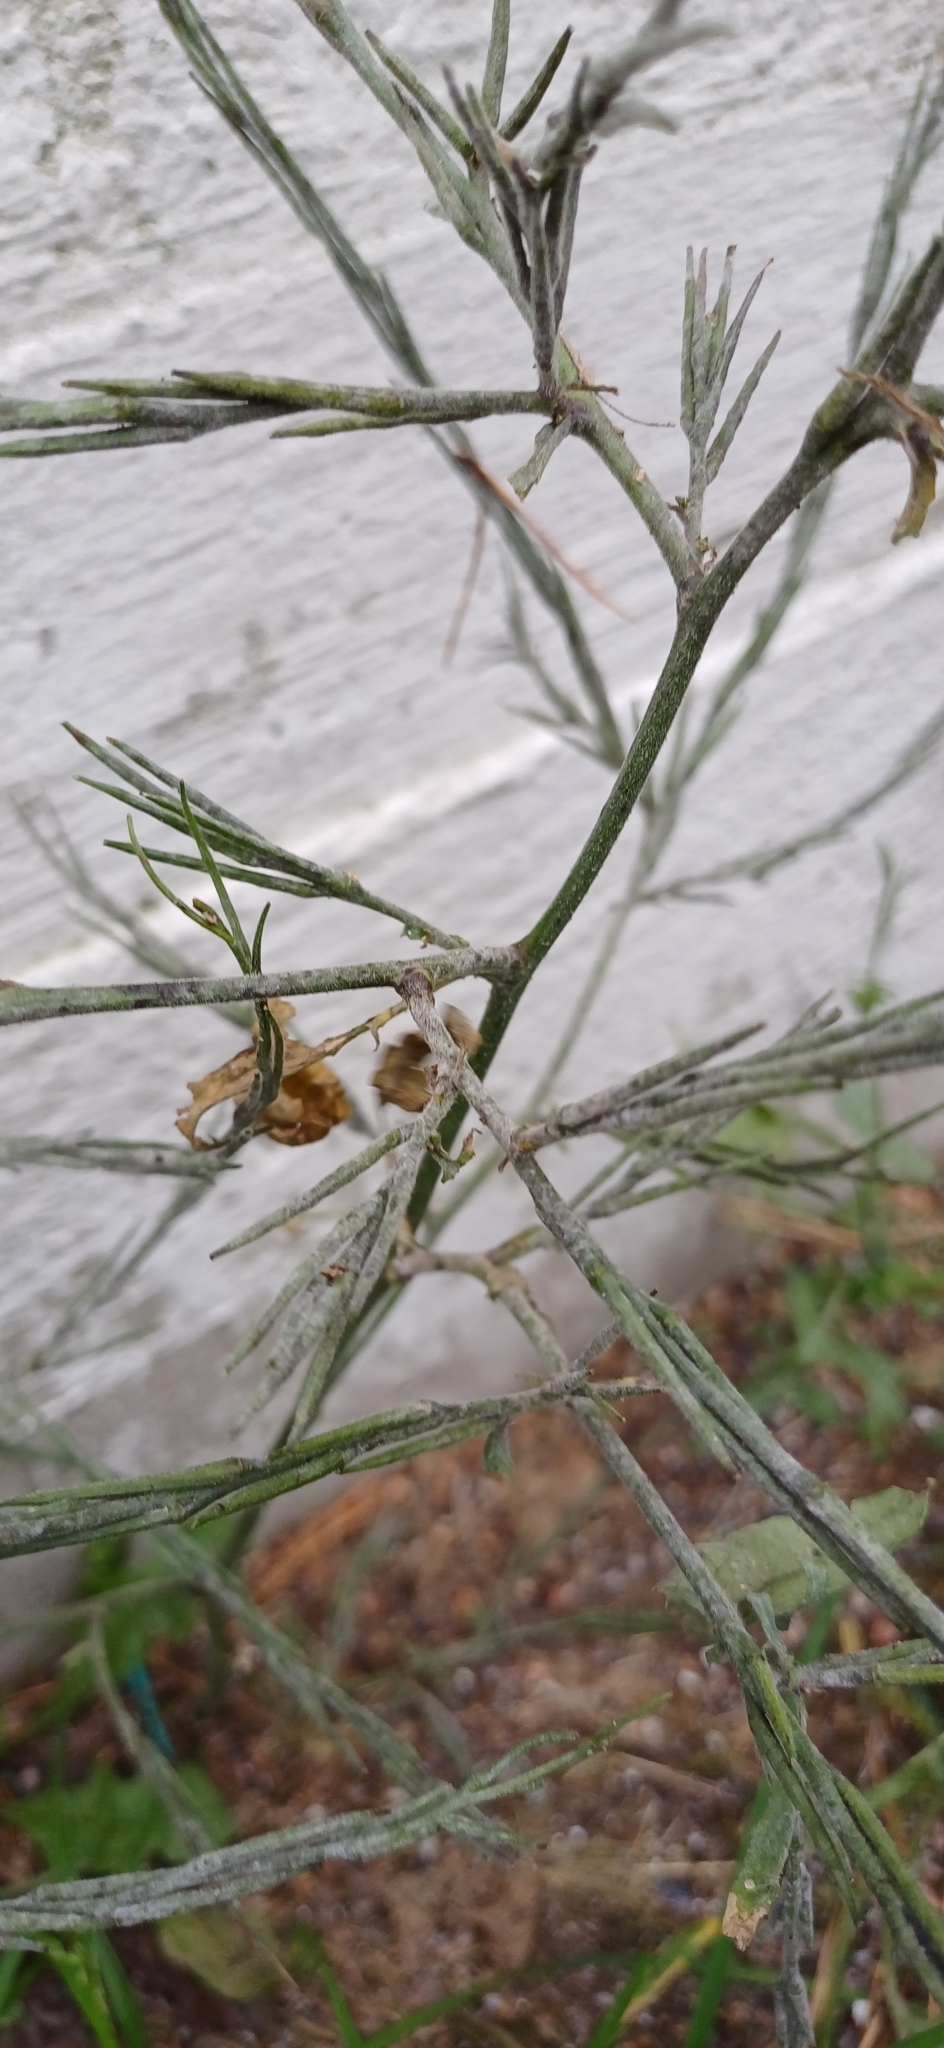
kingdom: Plantae
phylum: Tracheophyta
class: Magnoliopsida
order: Brassicales
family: Brassicaceae
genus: Sisymbrium
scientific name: Sisymbrium officinale
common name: Hedge mustard
